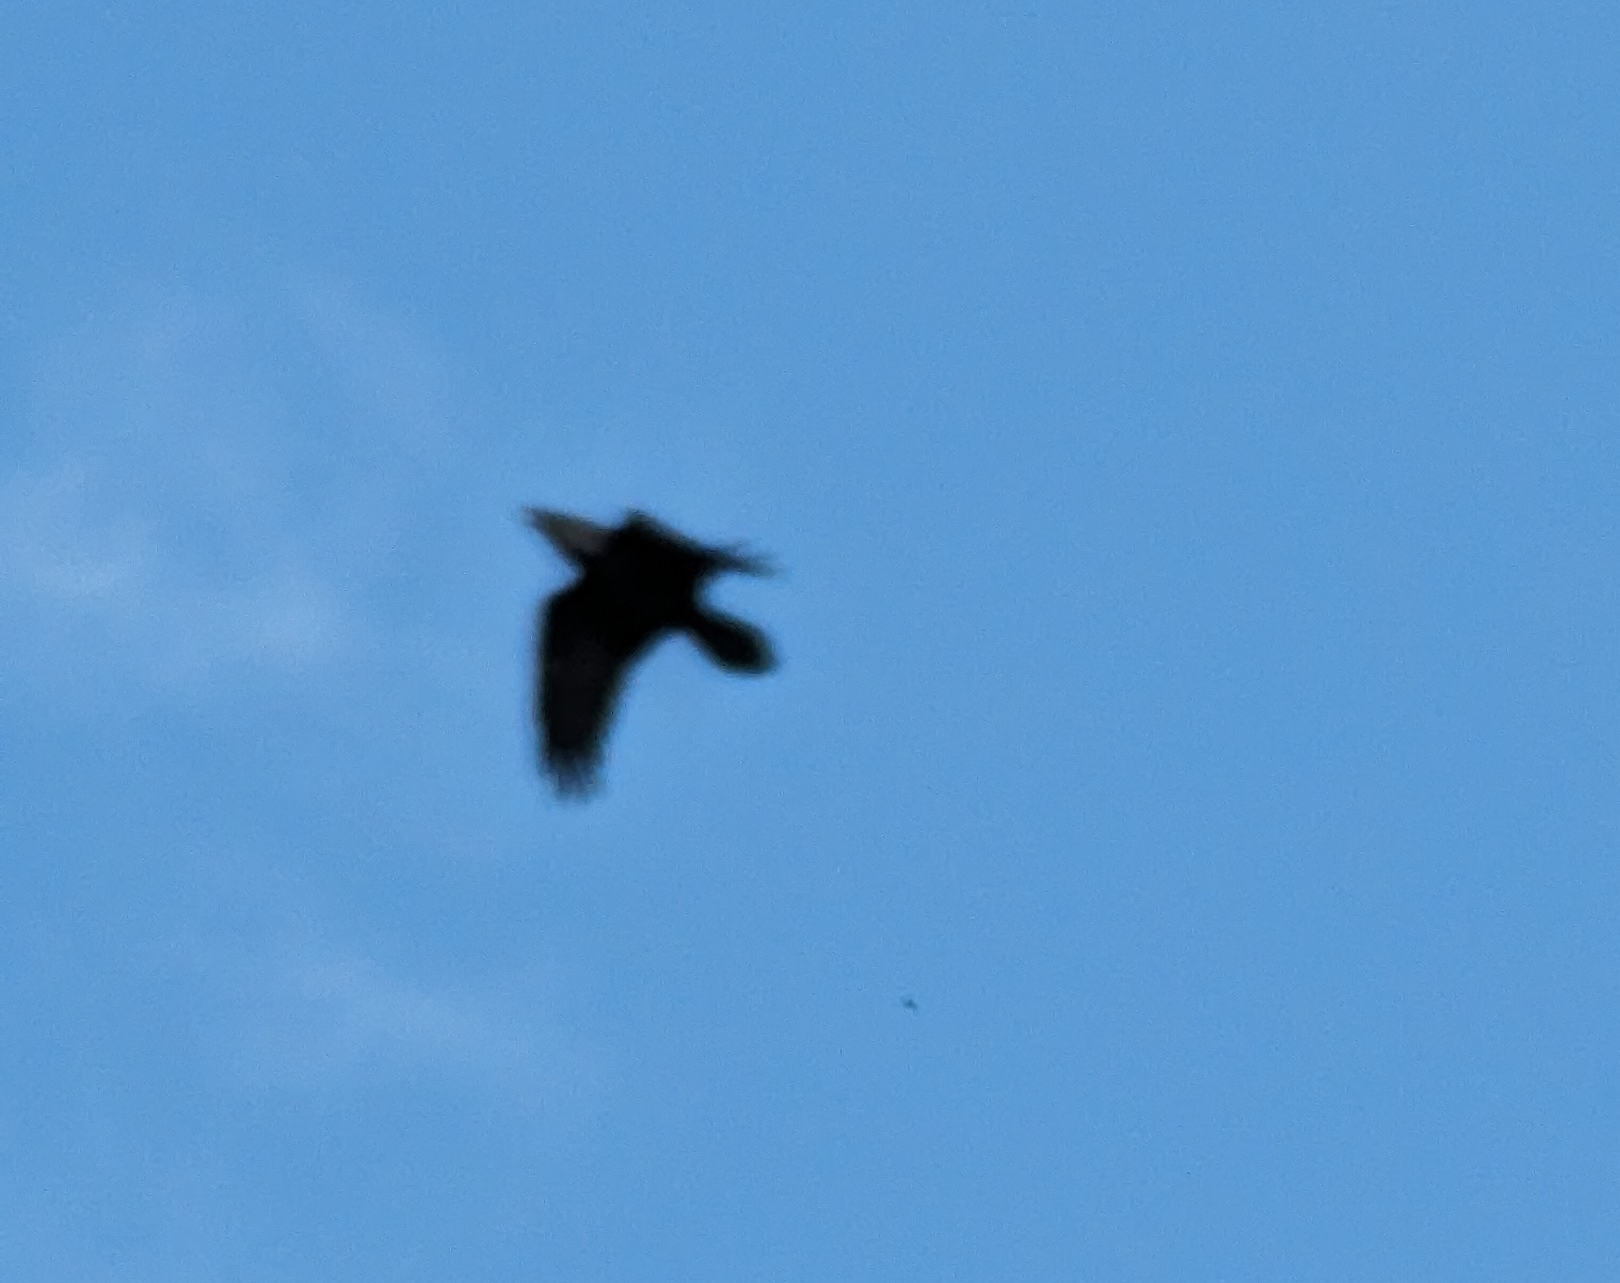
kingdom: Animalia
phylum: Chordata
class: Aves
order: Passeriformes
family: Corvidae
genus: Corvus
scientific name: Corvus corax
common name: Common raven
